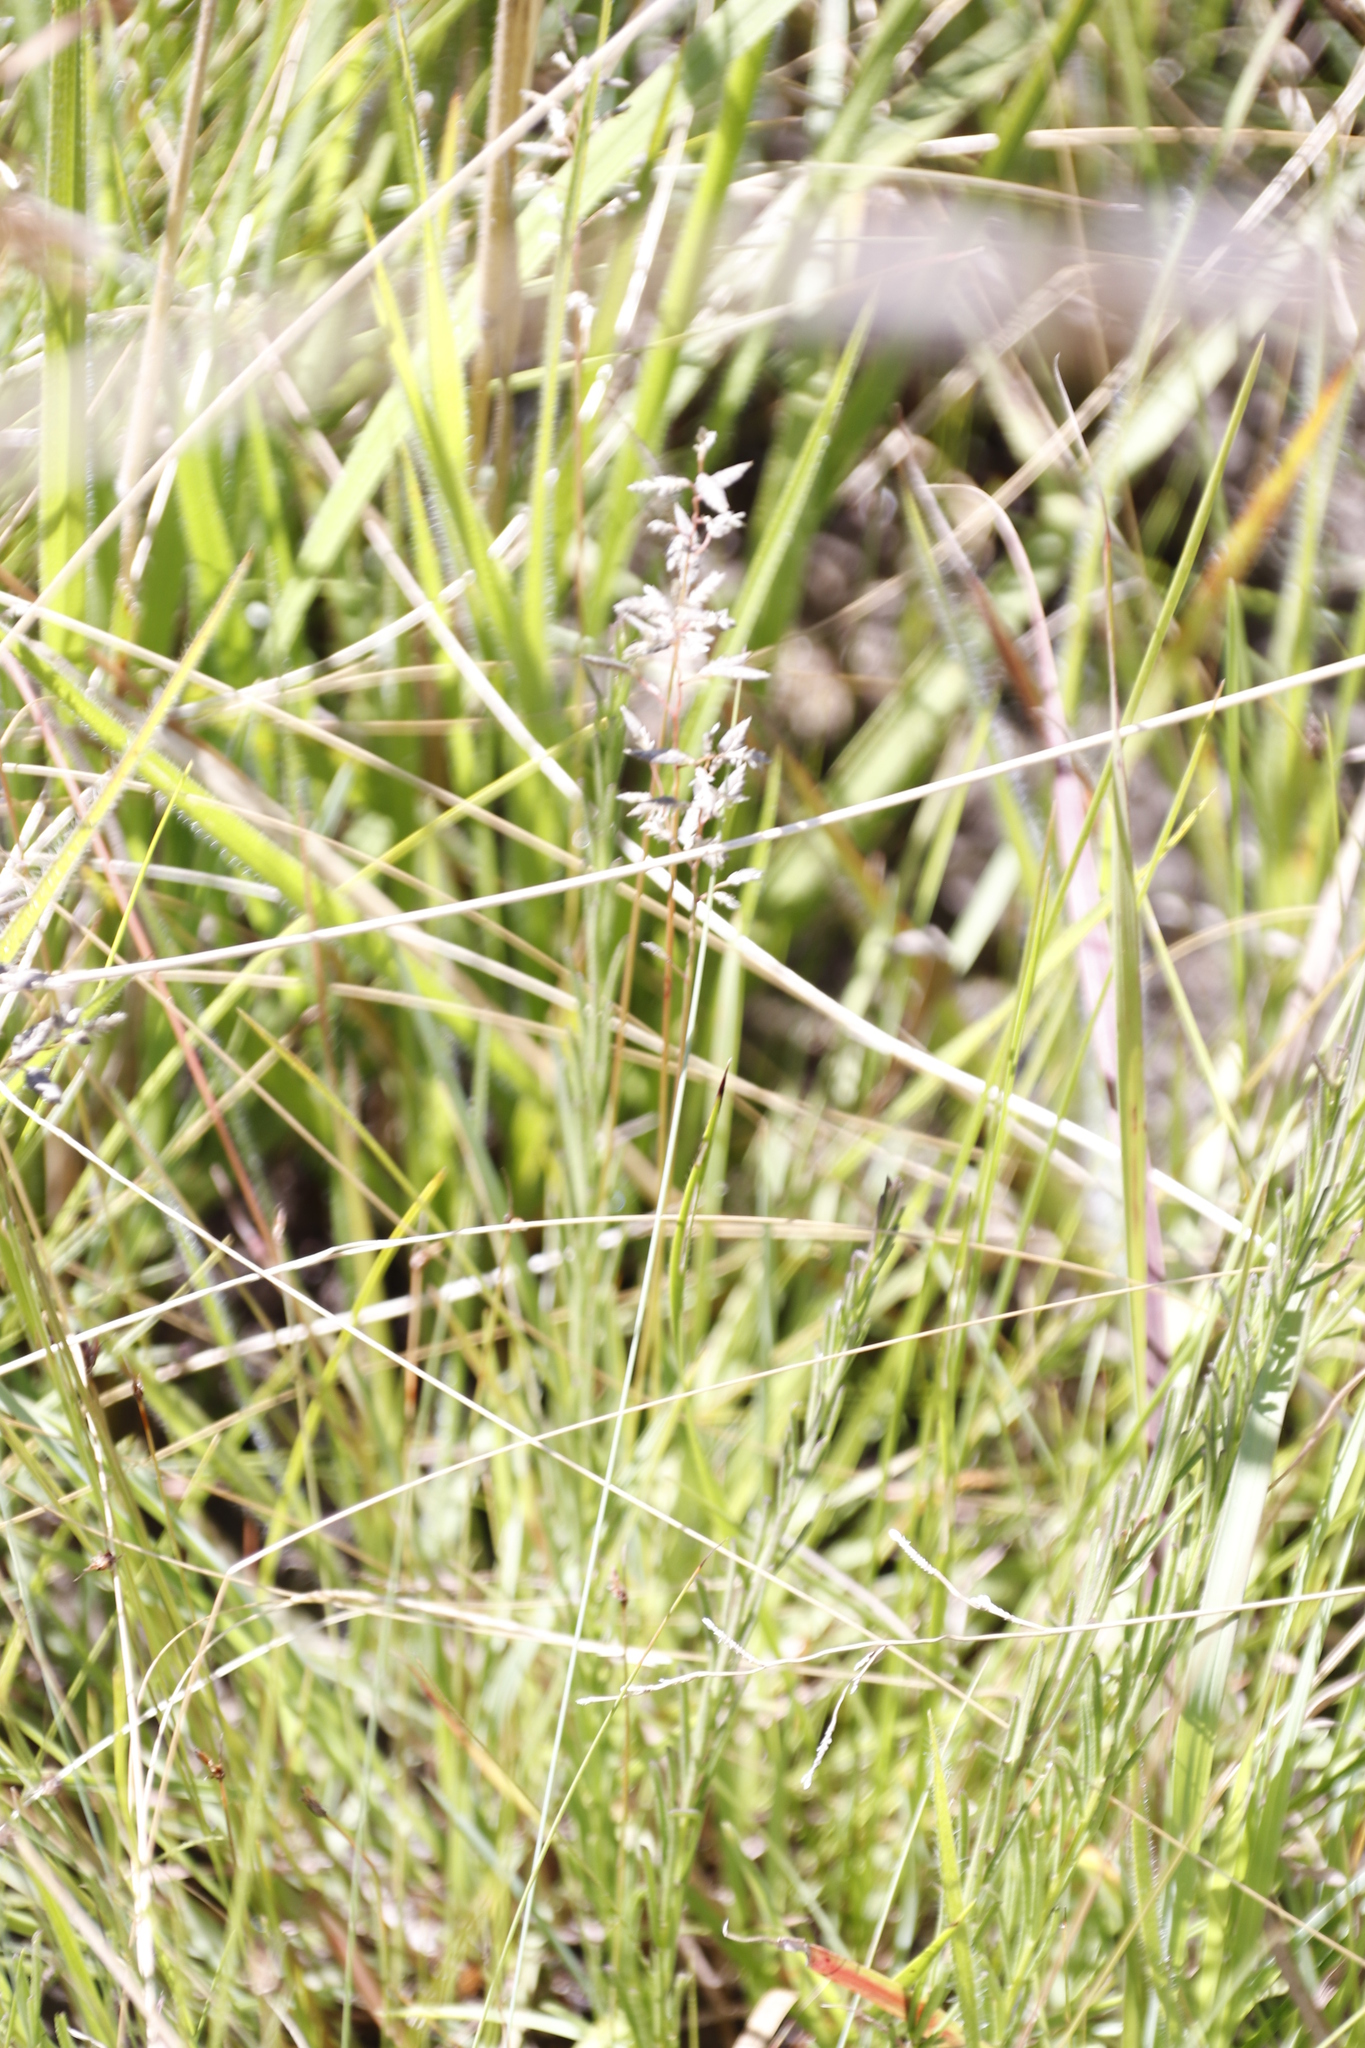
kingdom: Plantae
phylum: Tracheophyta
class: Liliopsida
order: Poales
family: Poaceae
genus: Eragrostis
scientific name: Eragrostis racemosa
